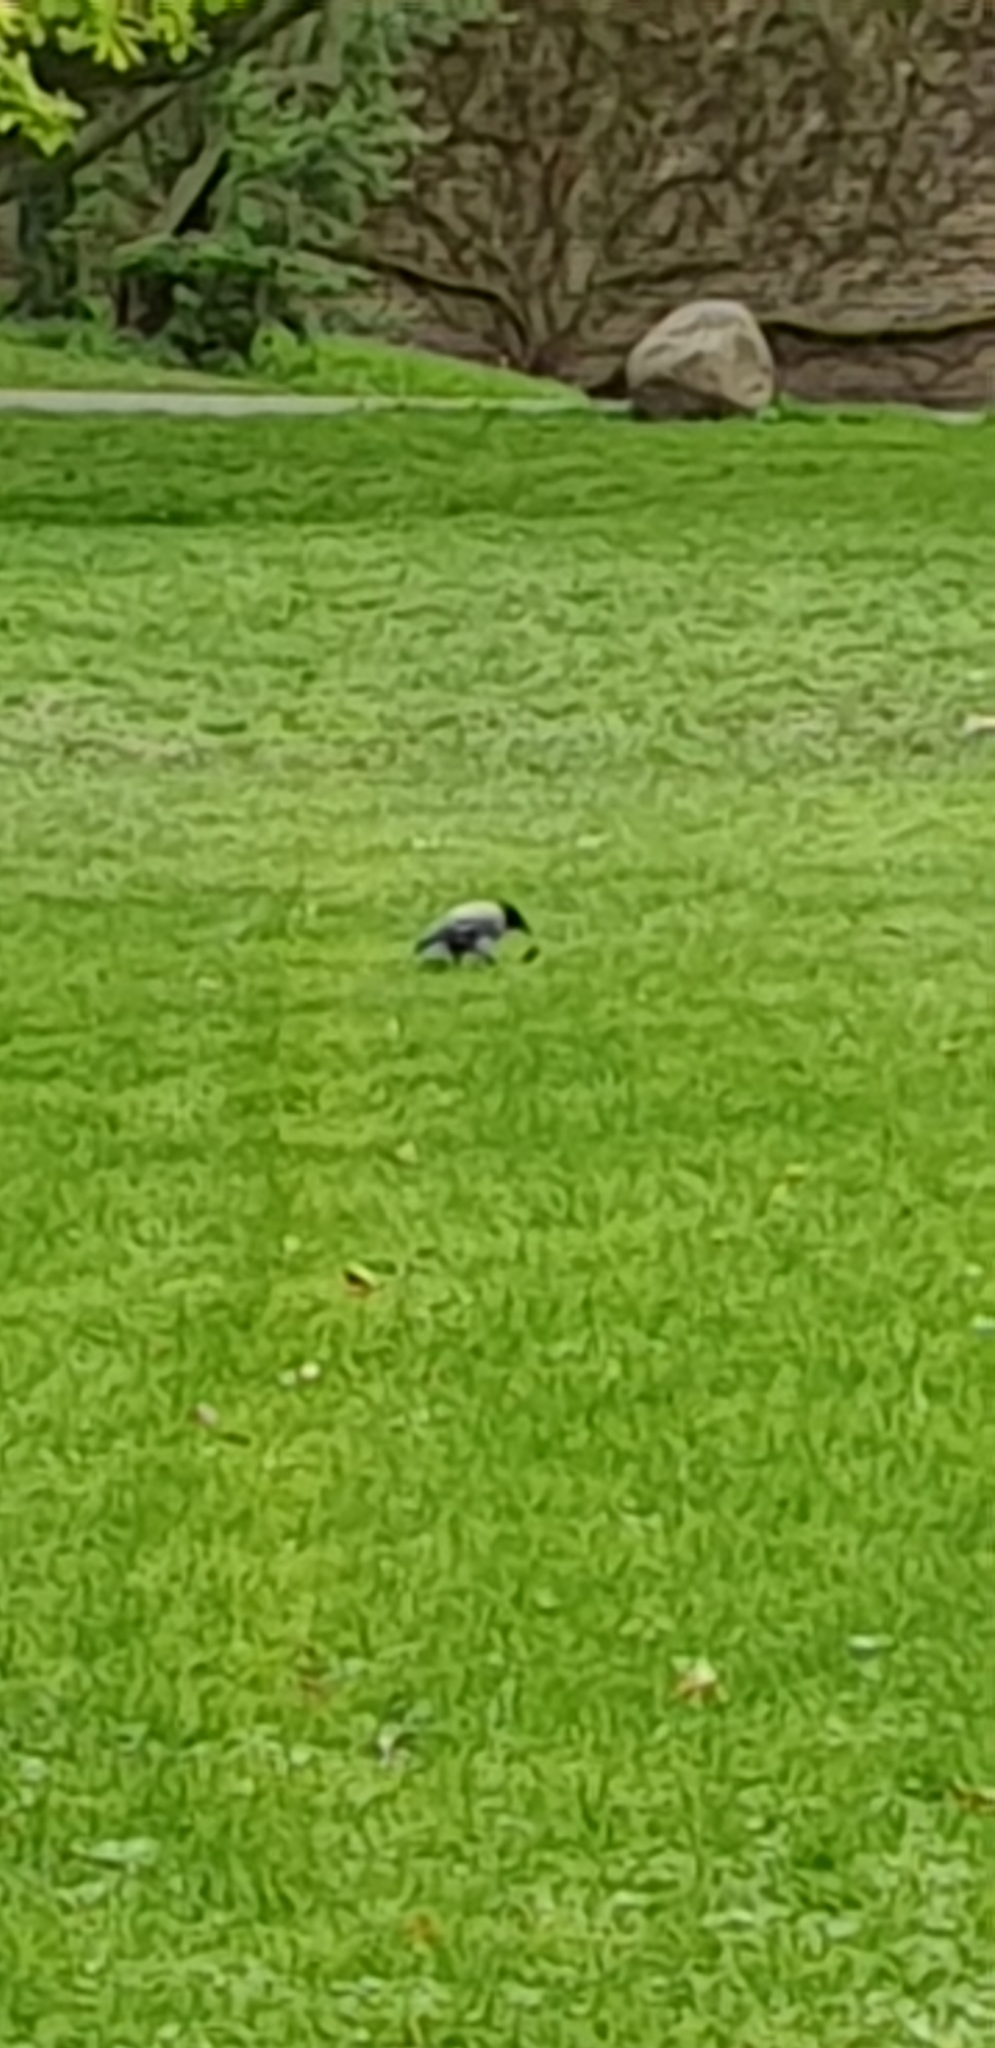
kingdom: Animalia
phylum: Chordata
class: Aves
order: Passeriformes
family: Corvidae
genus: Corvus
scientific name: Corvus cornix
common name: Hooded crow
